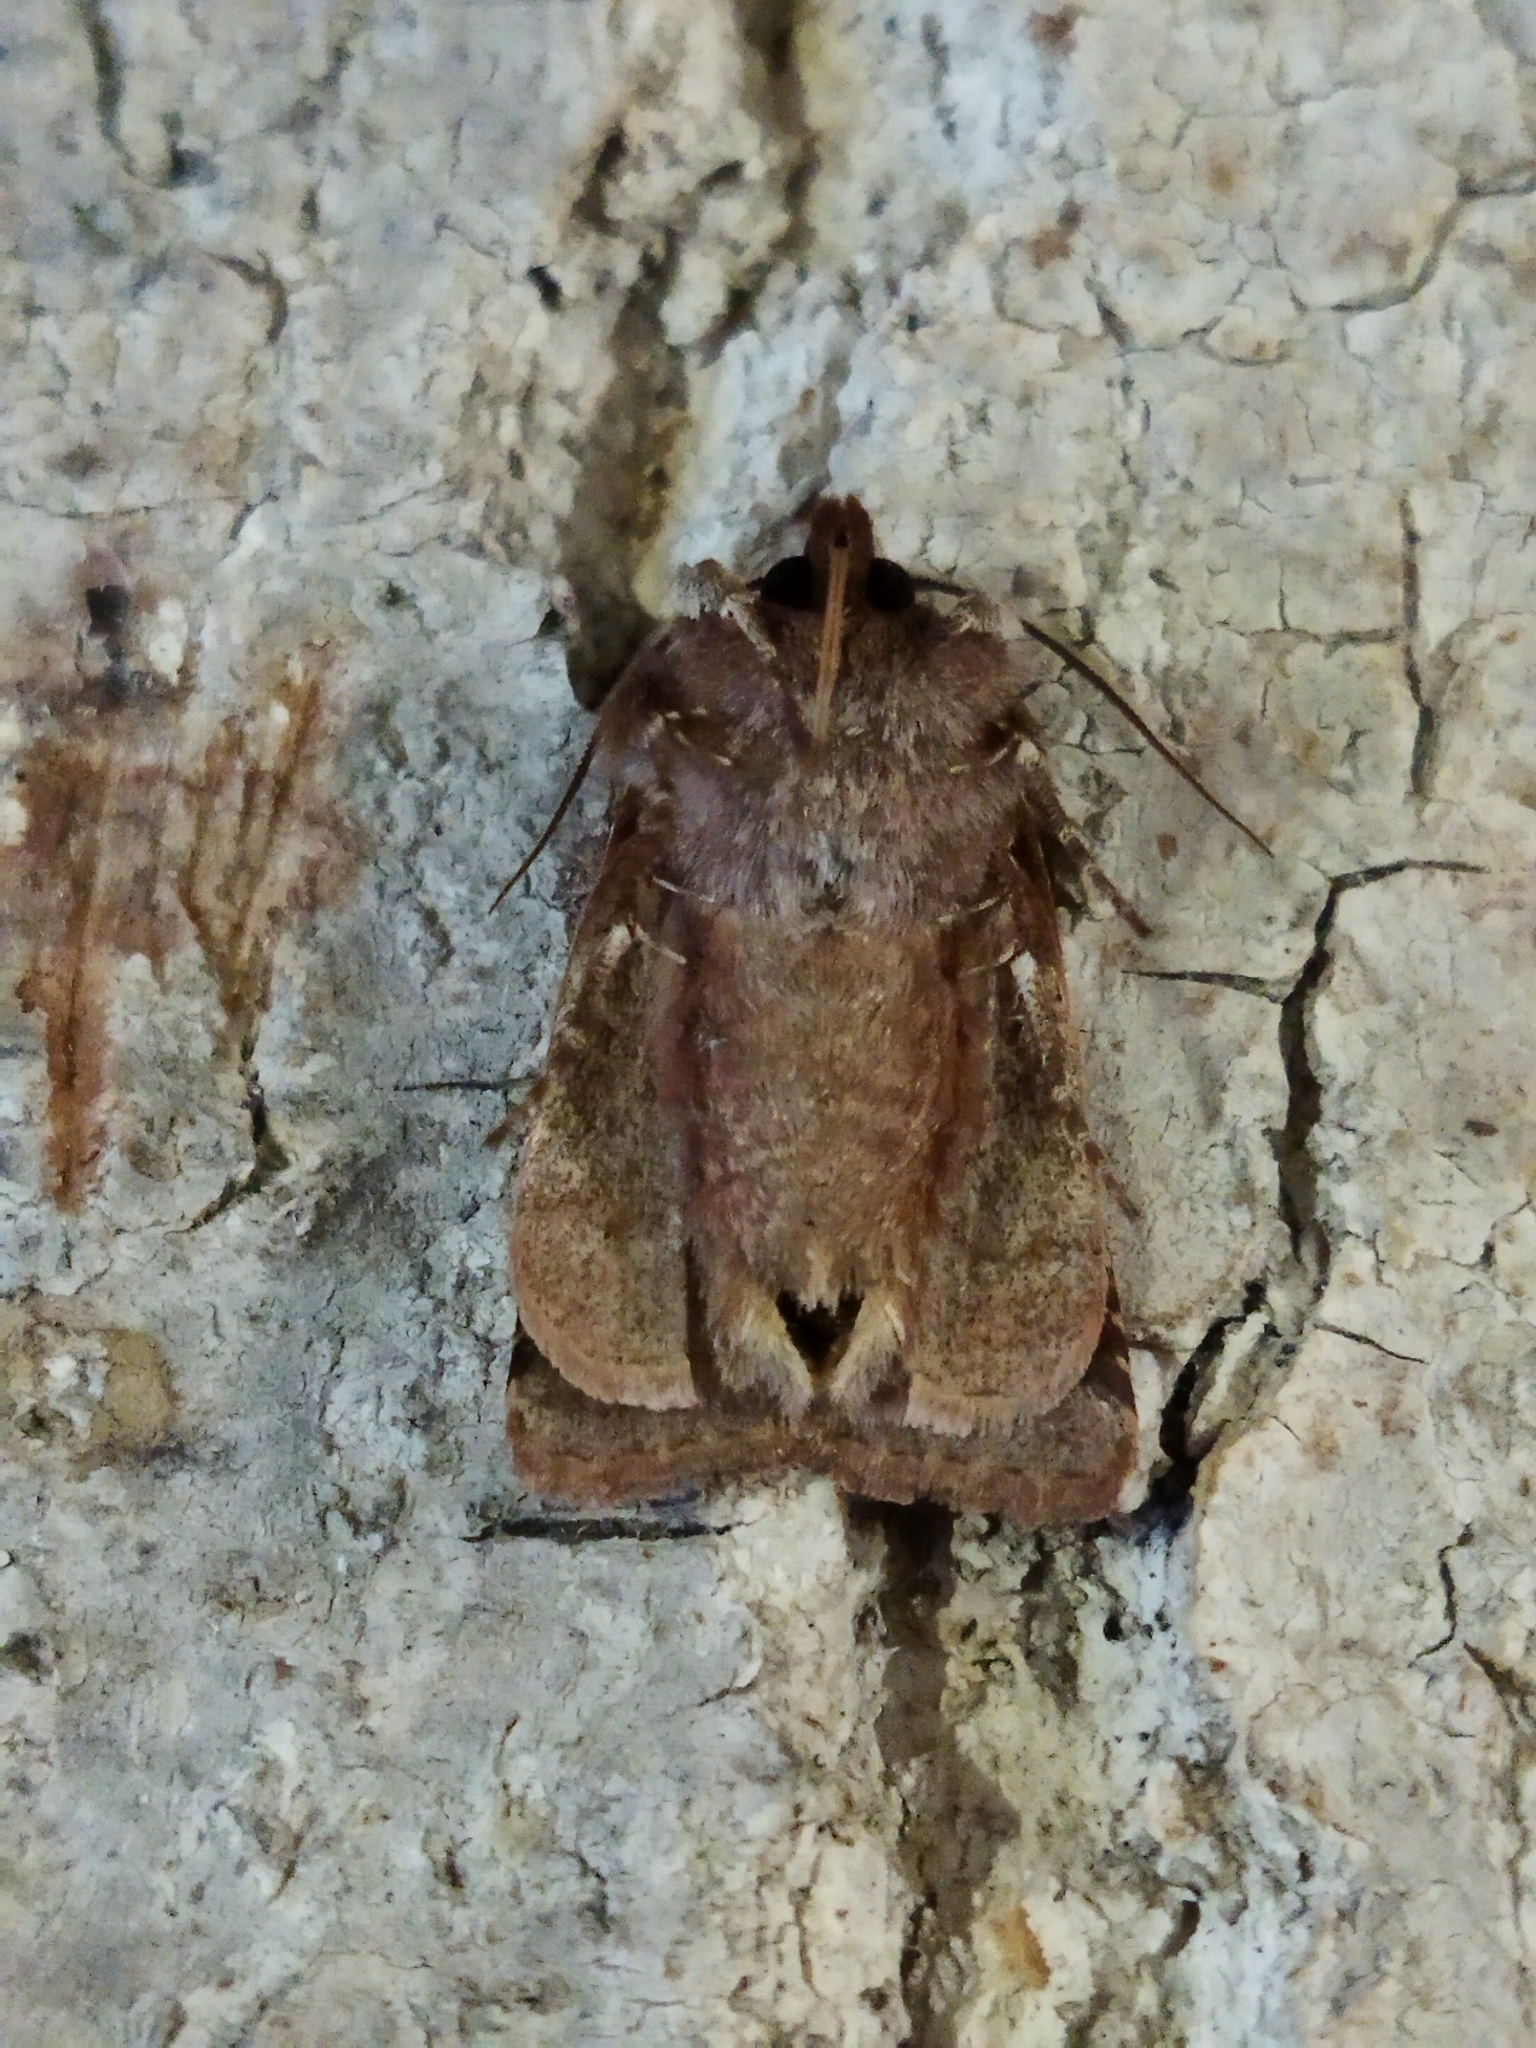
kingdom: Animalia
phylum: Arthropoda
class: Insecta
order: Lepidoptera
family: Noctuidae
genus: Cerastis
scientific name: Cerastis rubricosa
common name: Red chestnut
